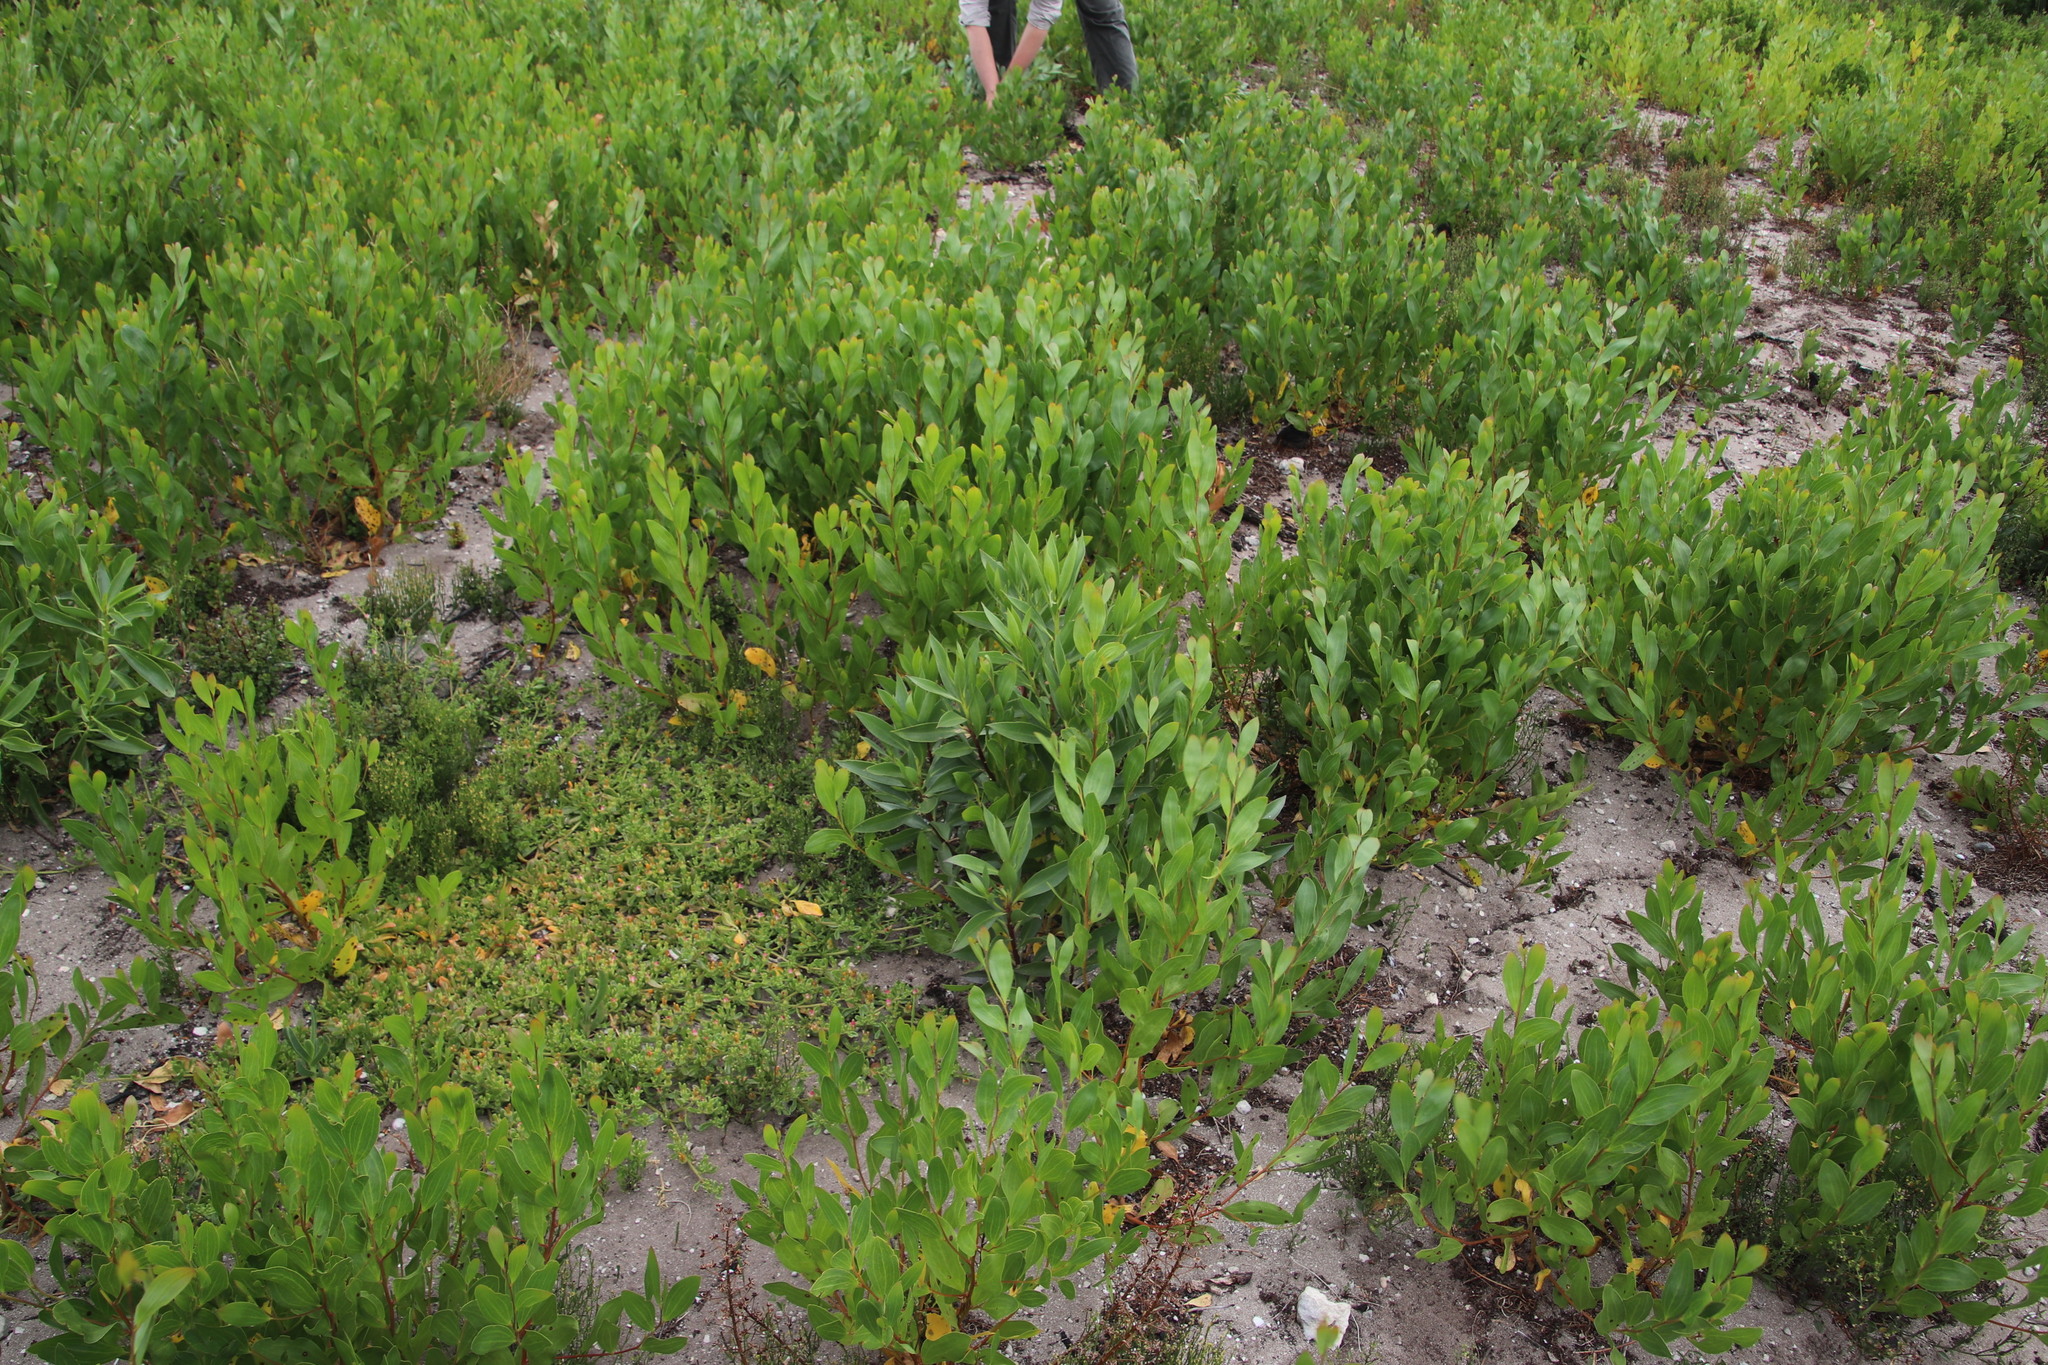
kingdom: Plantae
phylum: Tracheophyta
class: Magnoliopsida
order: Fabales
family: Fabaceae
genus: Acacia
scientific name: Acacia cyclops
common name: Coastal wattle
